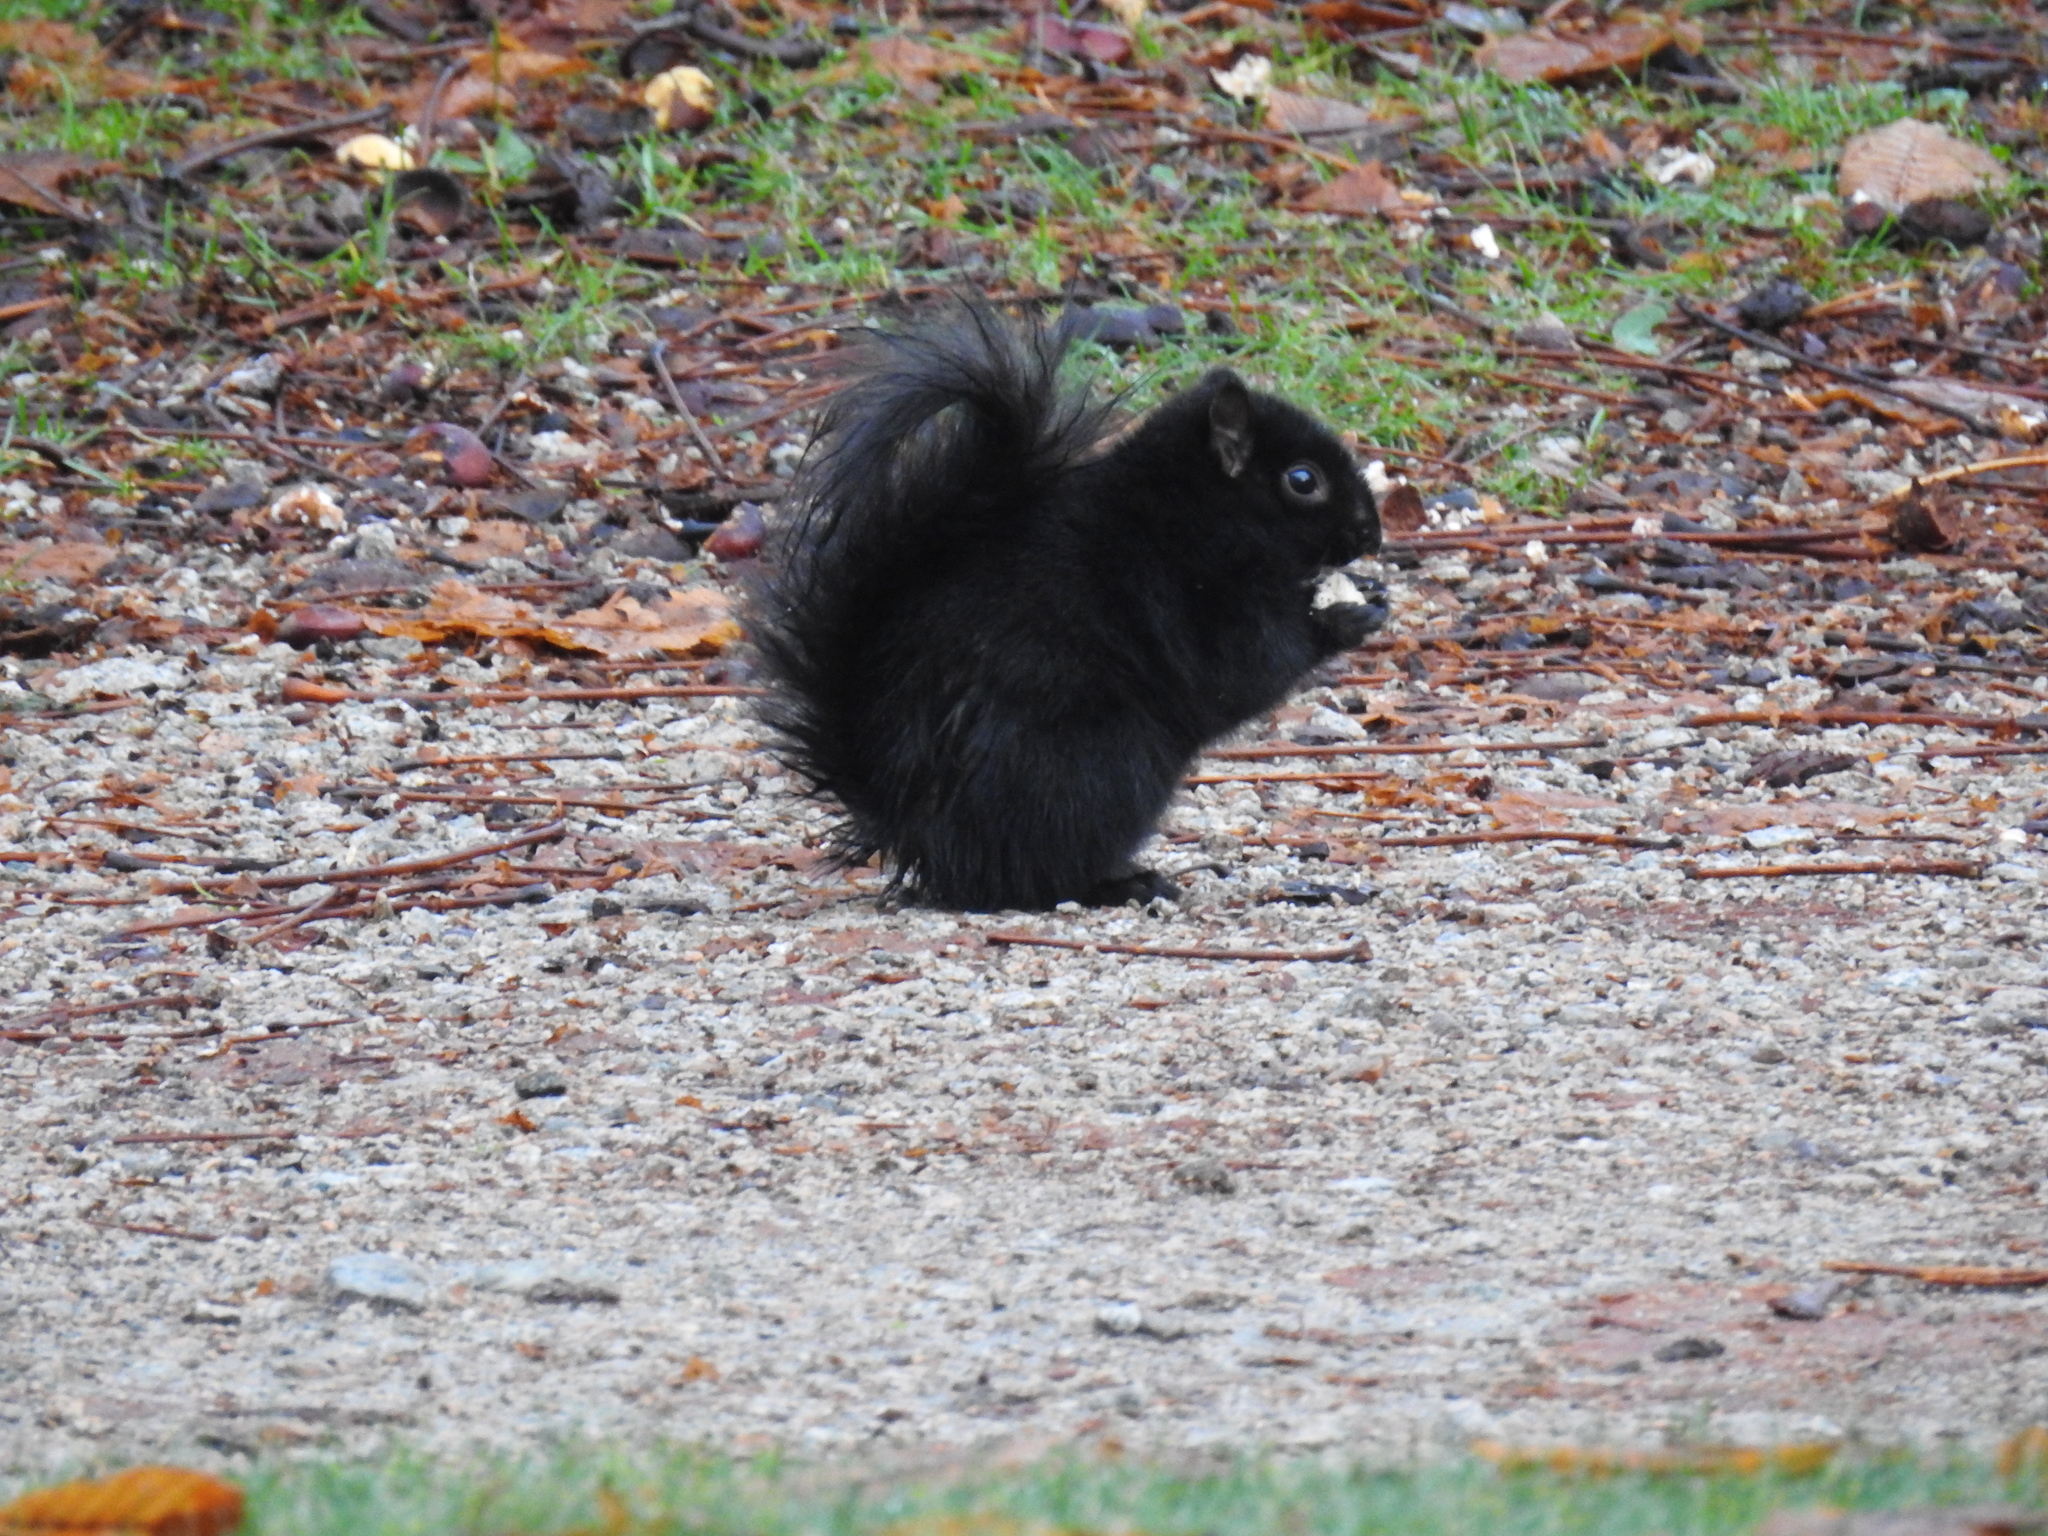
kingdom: Animalia
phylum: Chordata
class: Mammalia
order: Rodentia
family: Sciuridae
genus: Sciurus
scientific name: Sciurus carolinensis
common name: Eastern gray squirrel
